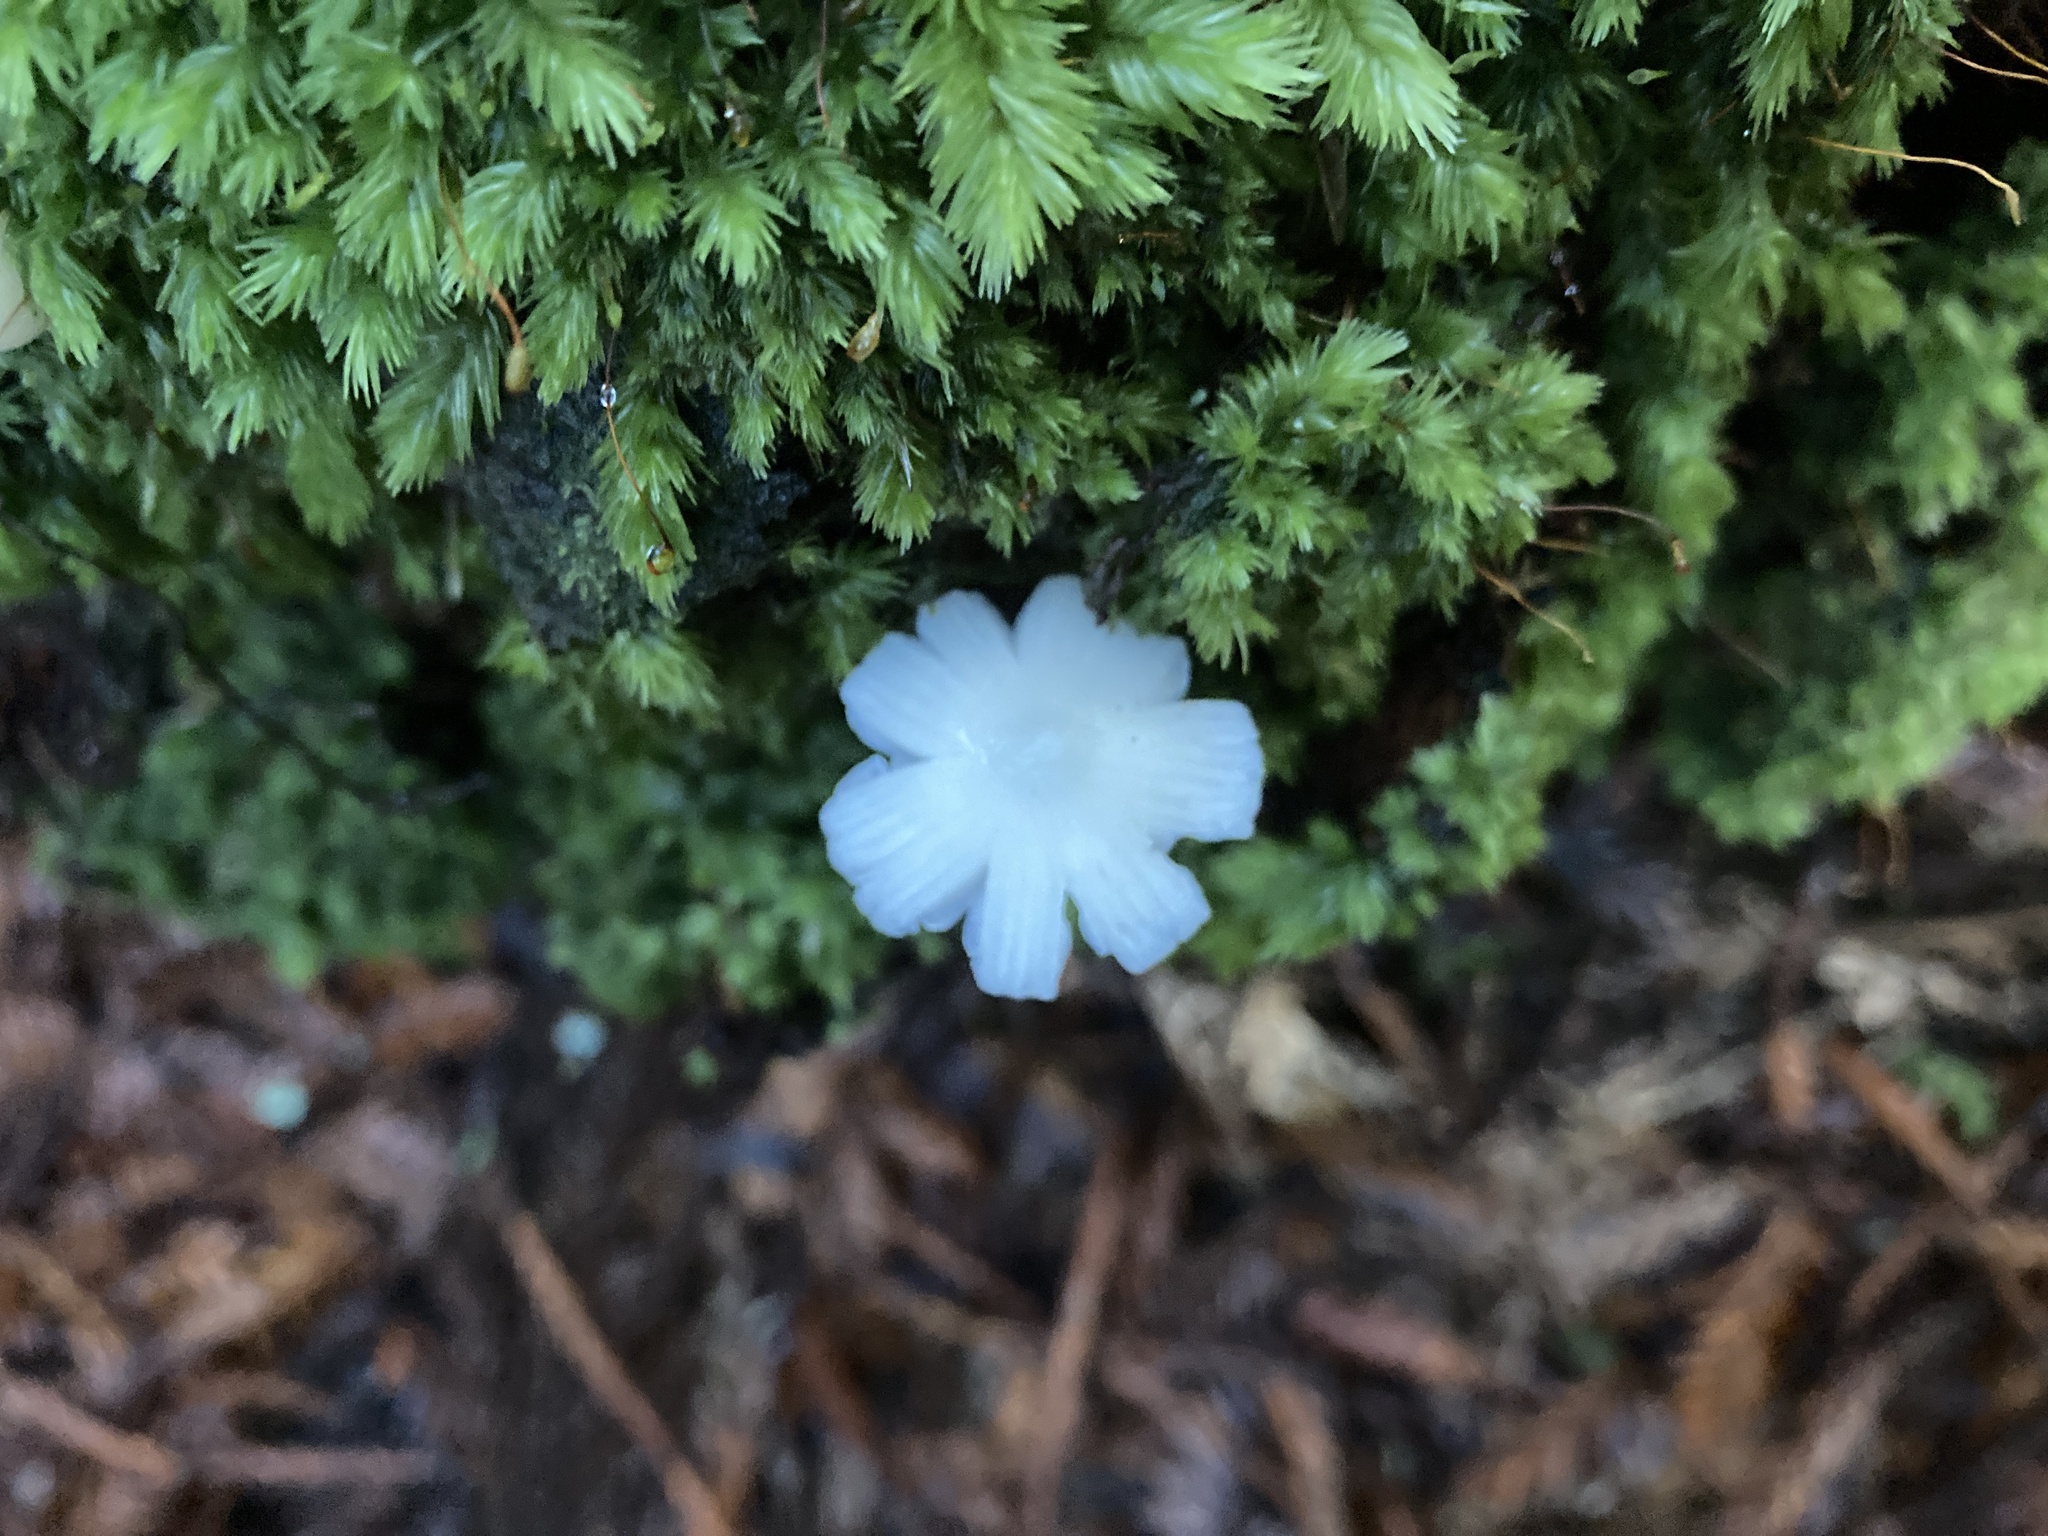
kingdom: Fungi
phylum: Basidiomycota
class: Agaricomycetes
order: Agaricales
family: Hygrophoraceae
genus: Humidicutis
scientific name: Humidicutis mavis
